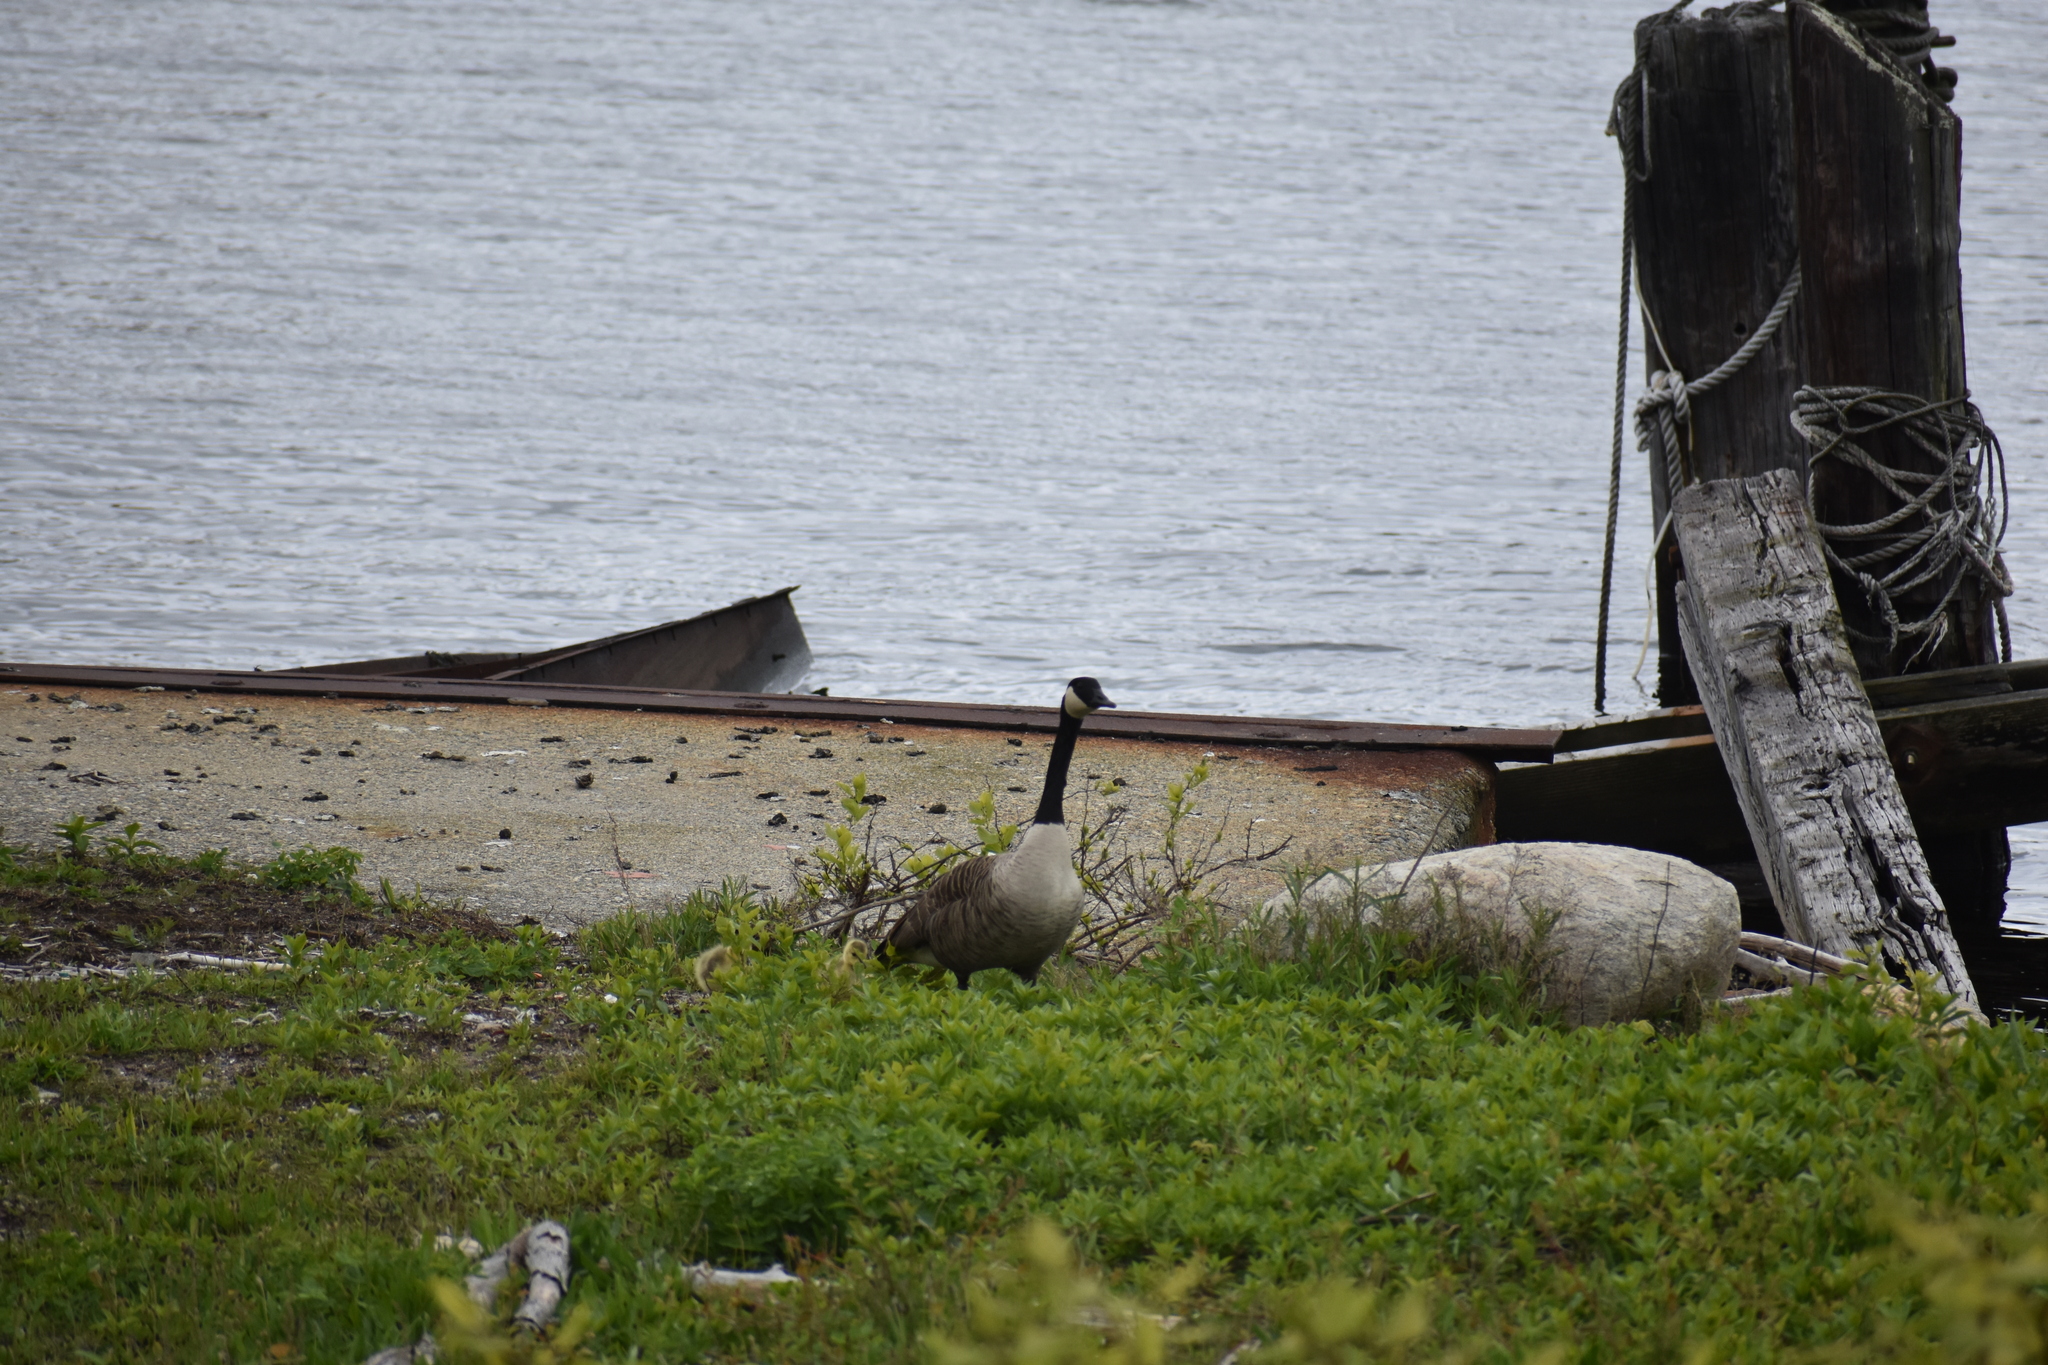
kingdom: Animalia
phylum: Chordata
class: Aves
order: Anseriformes
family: Anatidae
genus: Branta
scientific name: Branta canadensis
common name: Canada goose
